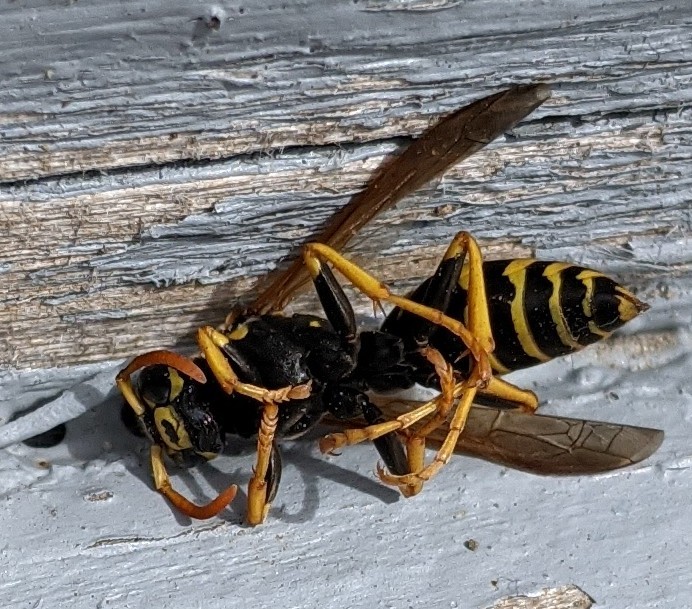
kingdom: Animalia
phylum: Arthropoda
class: Insecta
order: Hymenoptera
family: Eumenidae
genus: Polistes
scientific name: Polistes dominula
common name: Paper wasp
